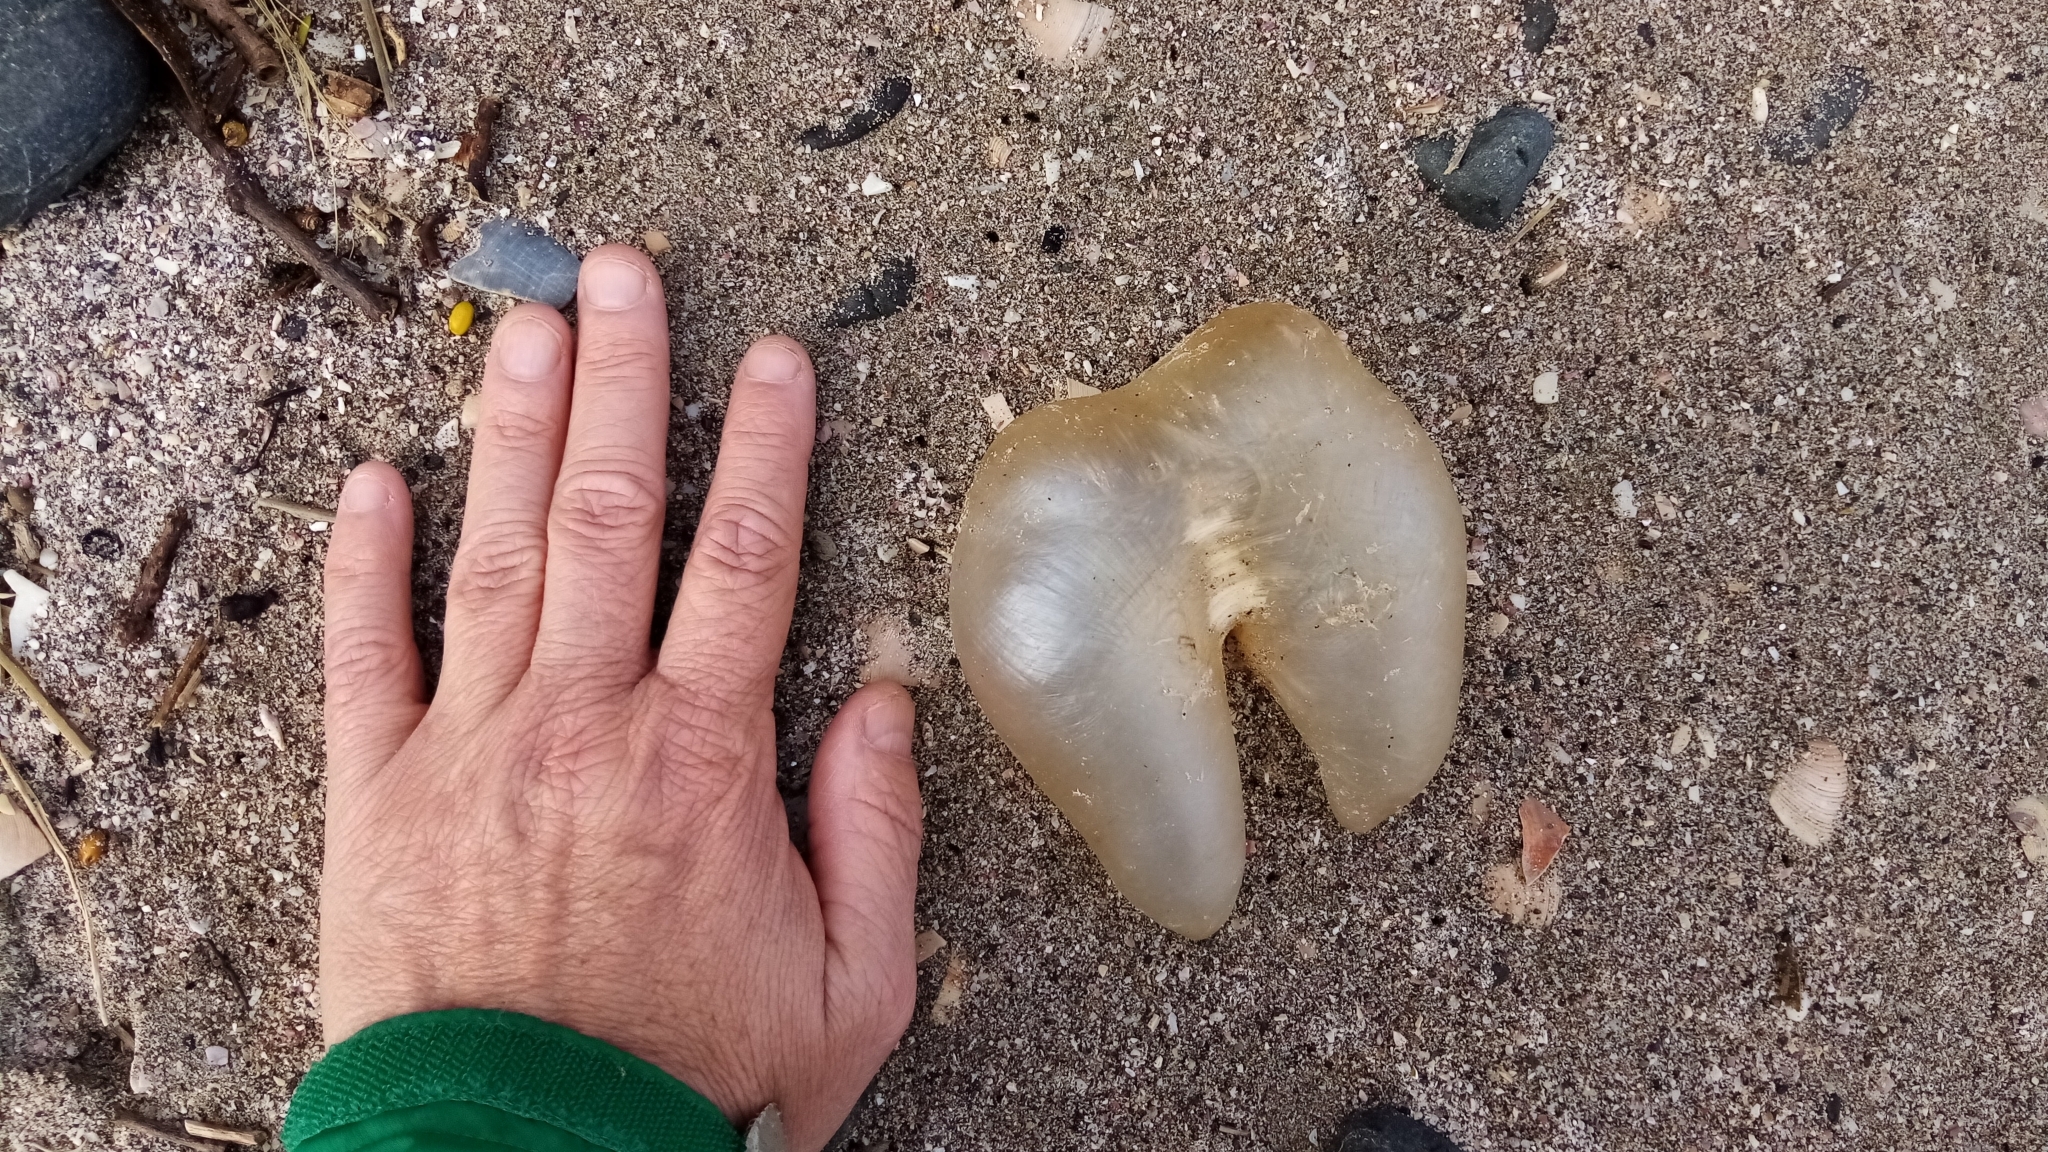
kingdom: Animalia
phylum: Chordata
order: Tetraodontiformes
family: Diodontidae
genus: Allomycterus
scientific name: Allomycterus pilatus
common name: No common name
